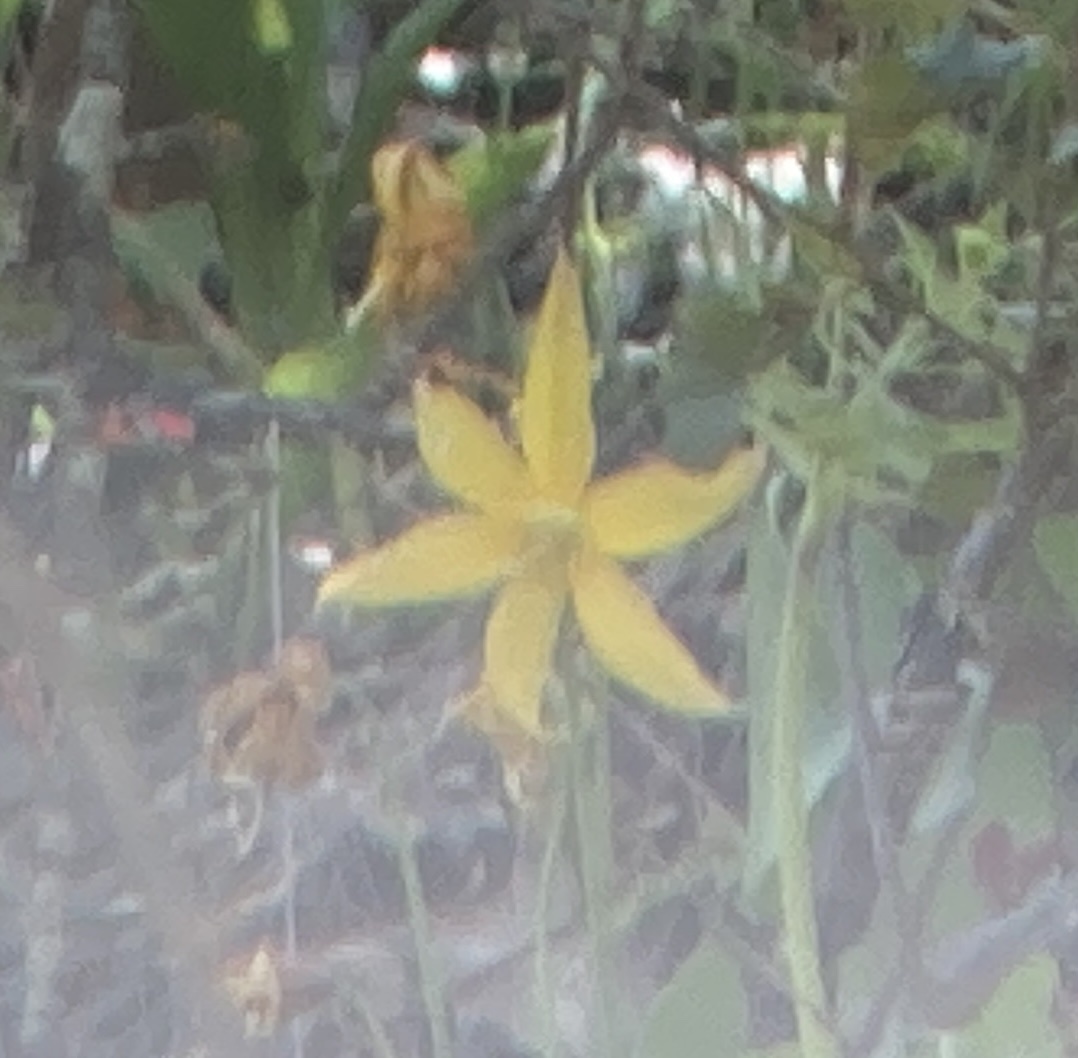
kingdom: Plantae
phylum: Tracheophyta
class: Liliopsida
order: Liliales
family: Liliaceae
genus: Erythronium
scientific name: Erythronium tuolumnense
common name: Tuolumne fawn-lily
